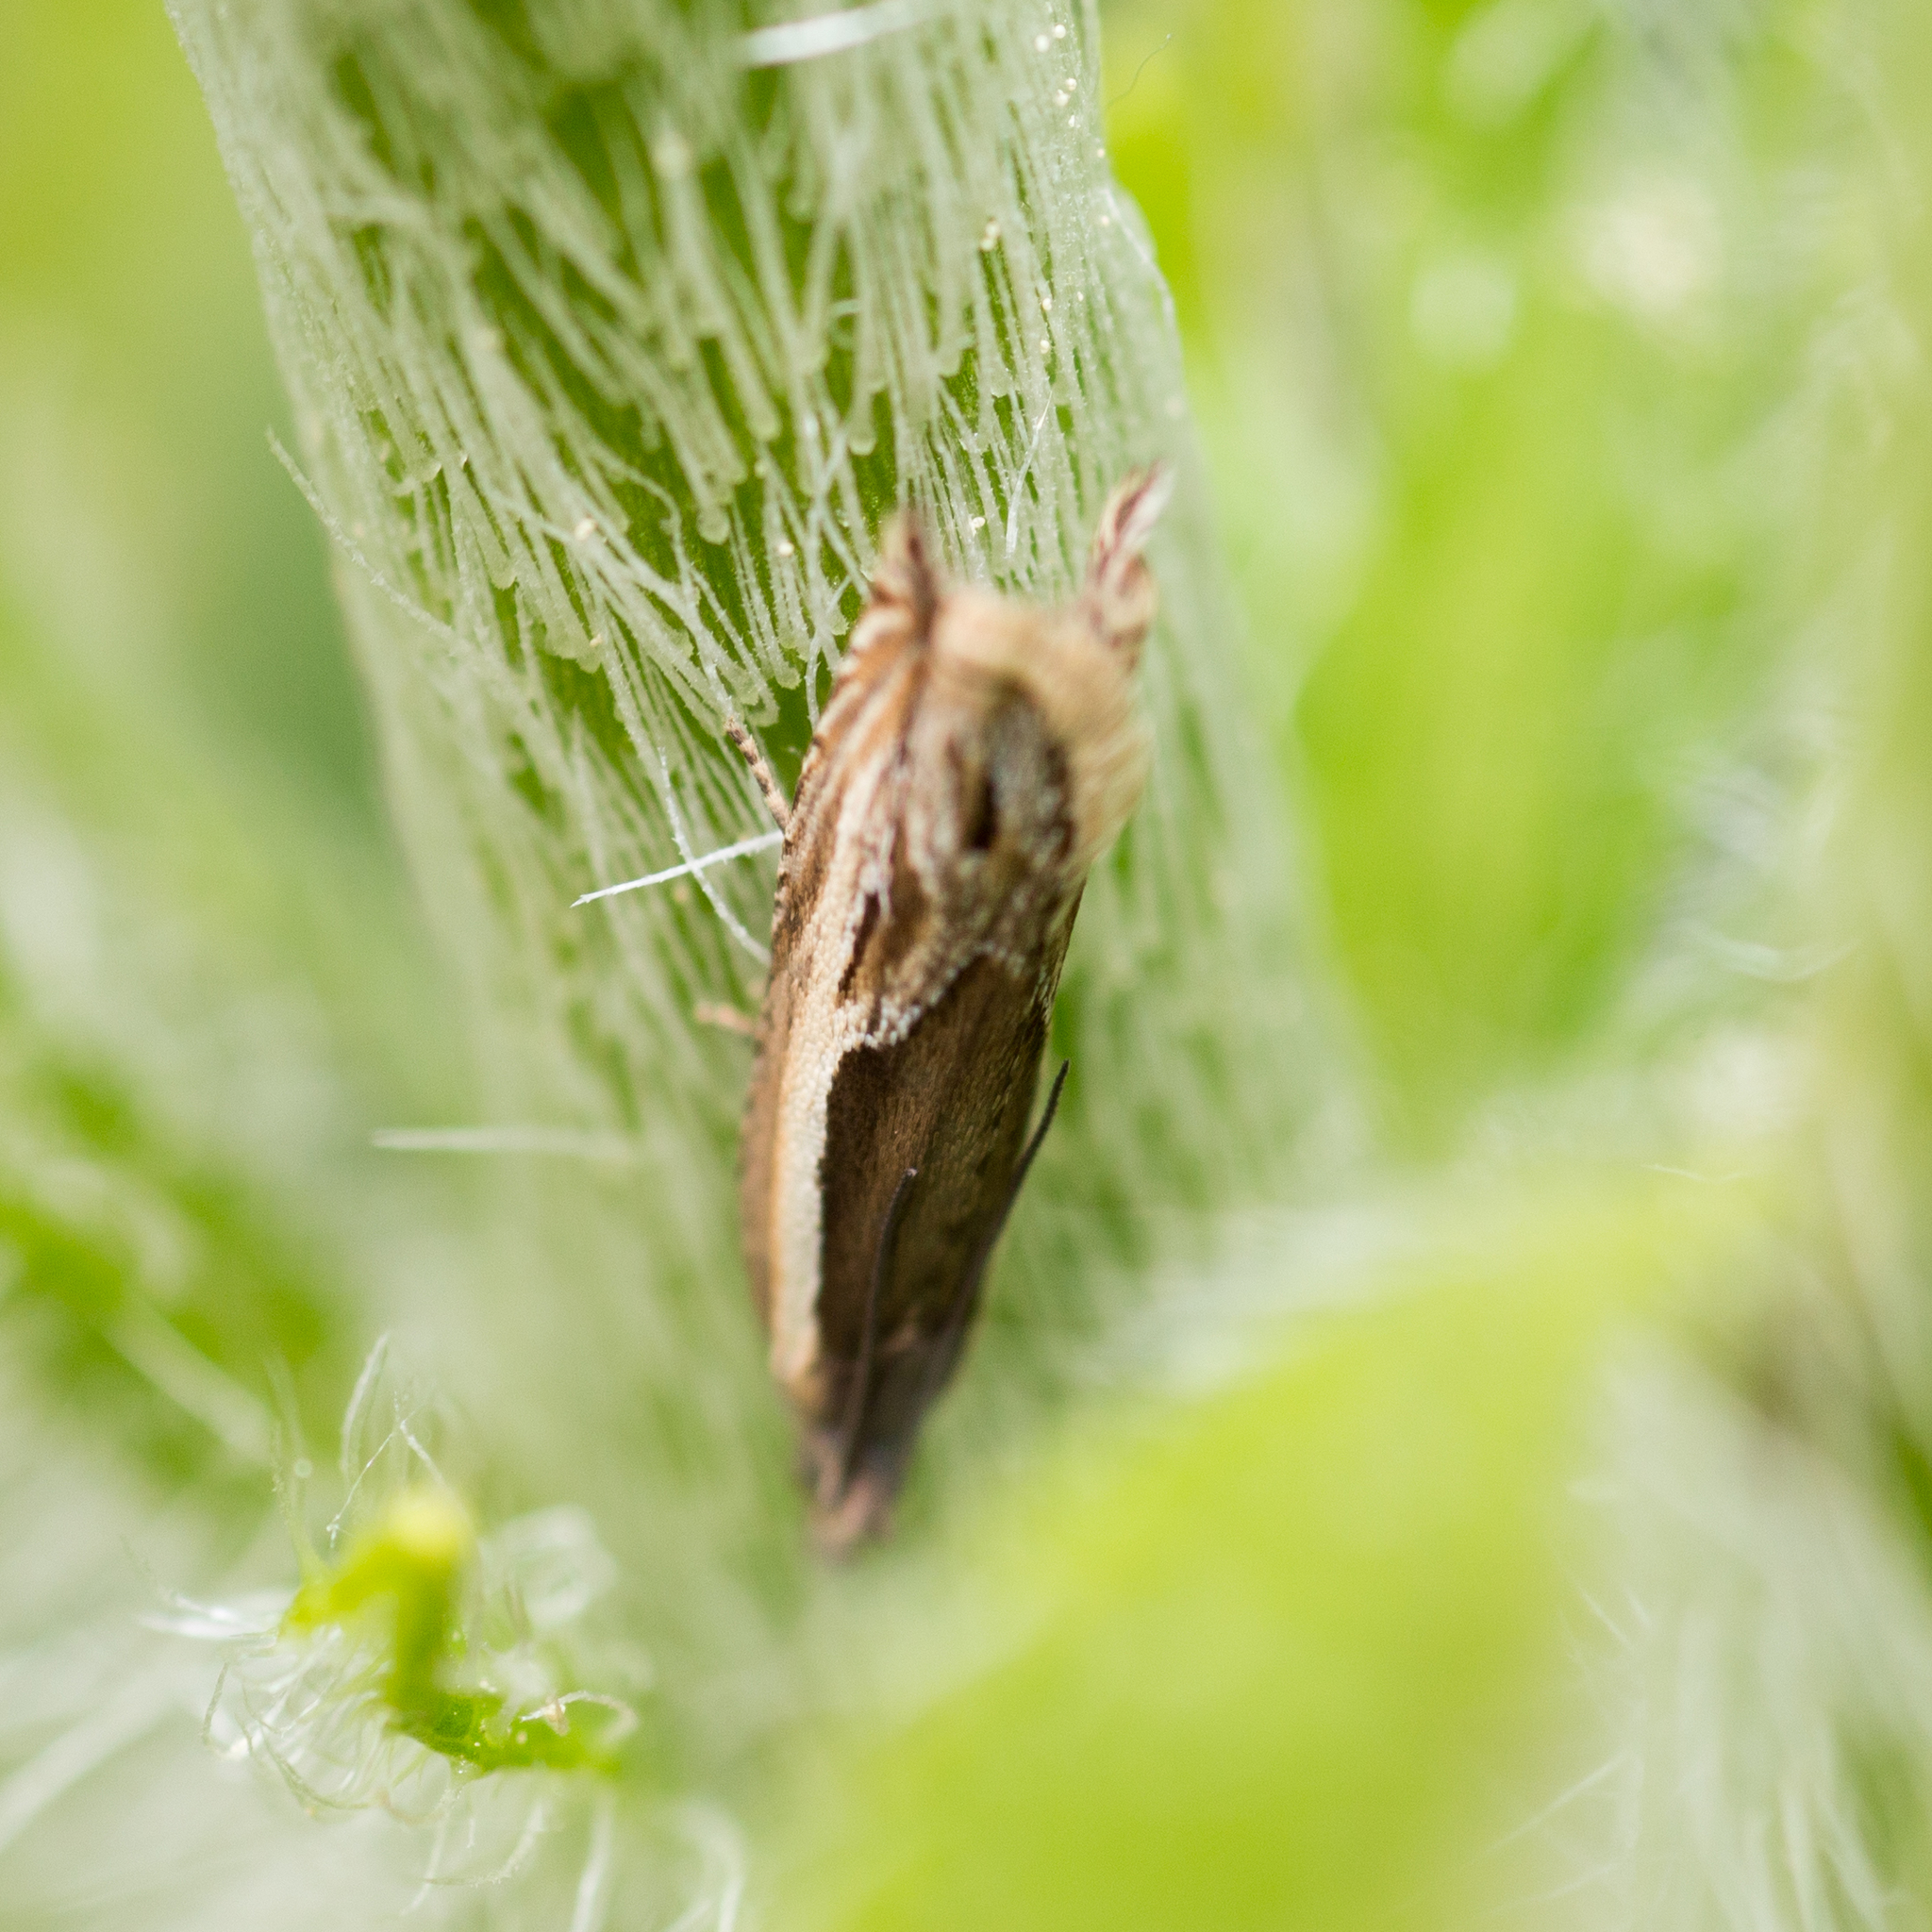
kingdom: Animalia
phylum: Arthropoda
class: Insecta
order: Lepidoptera
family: Tortricidae
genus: Ancylis
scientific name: Ancylis apicella
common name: Hook-tipped roller
